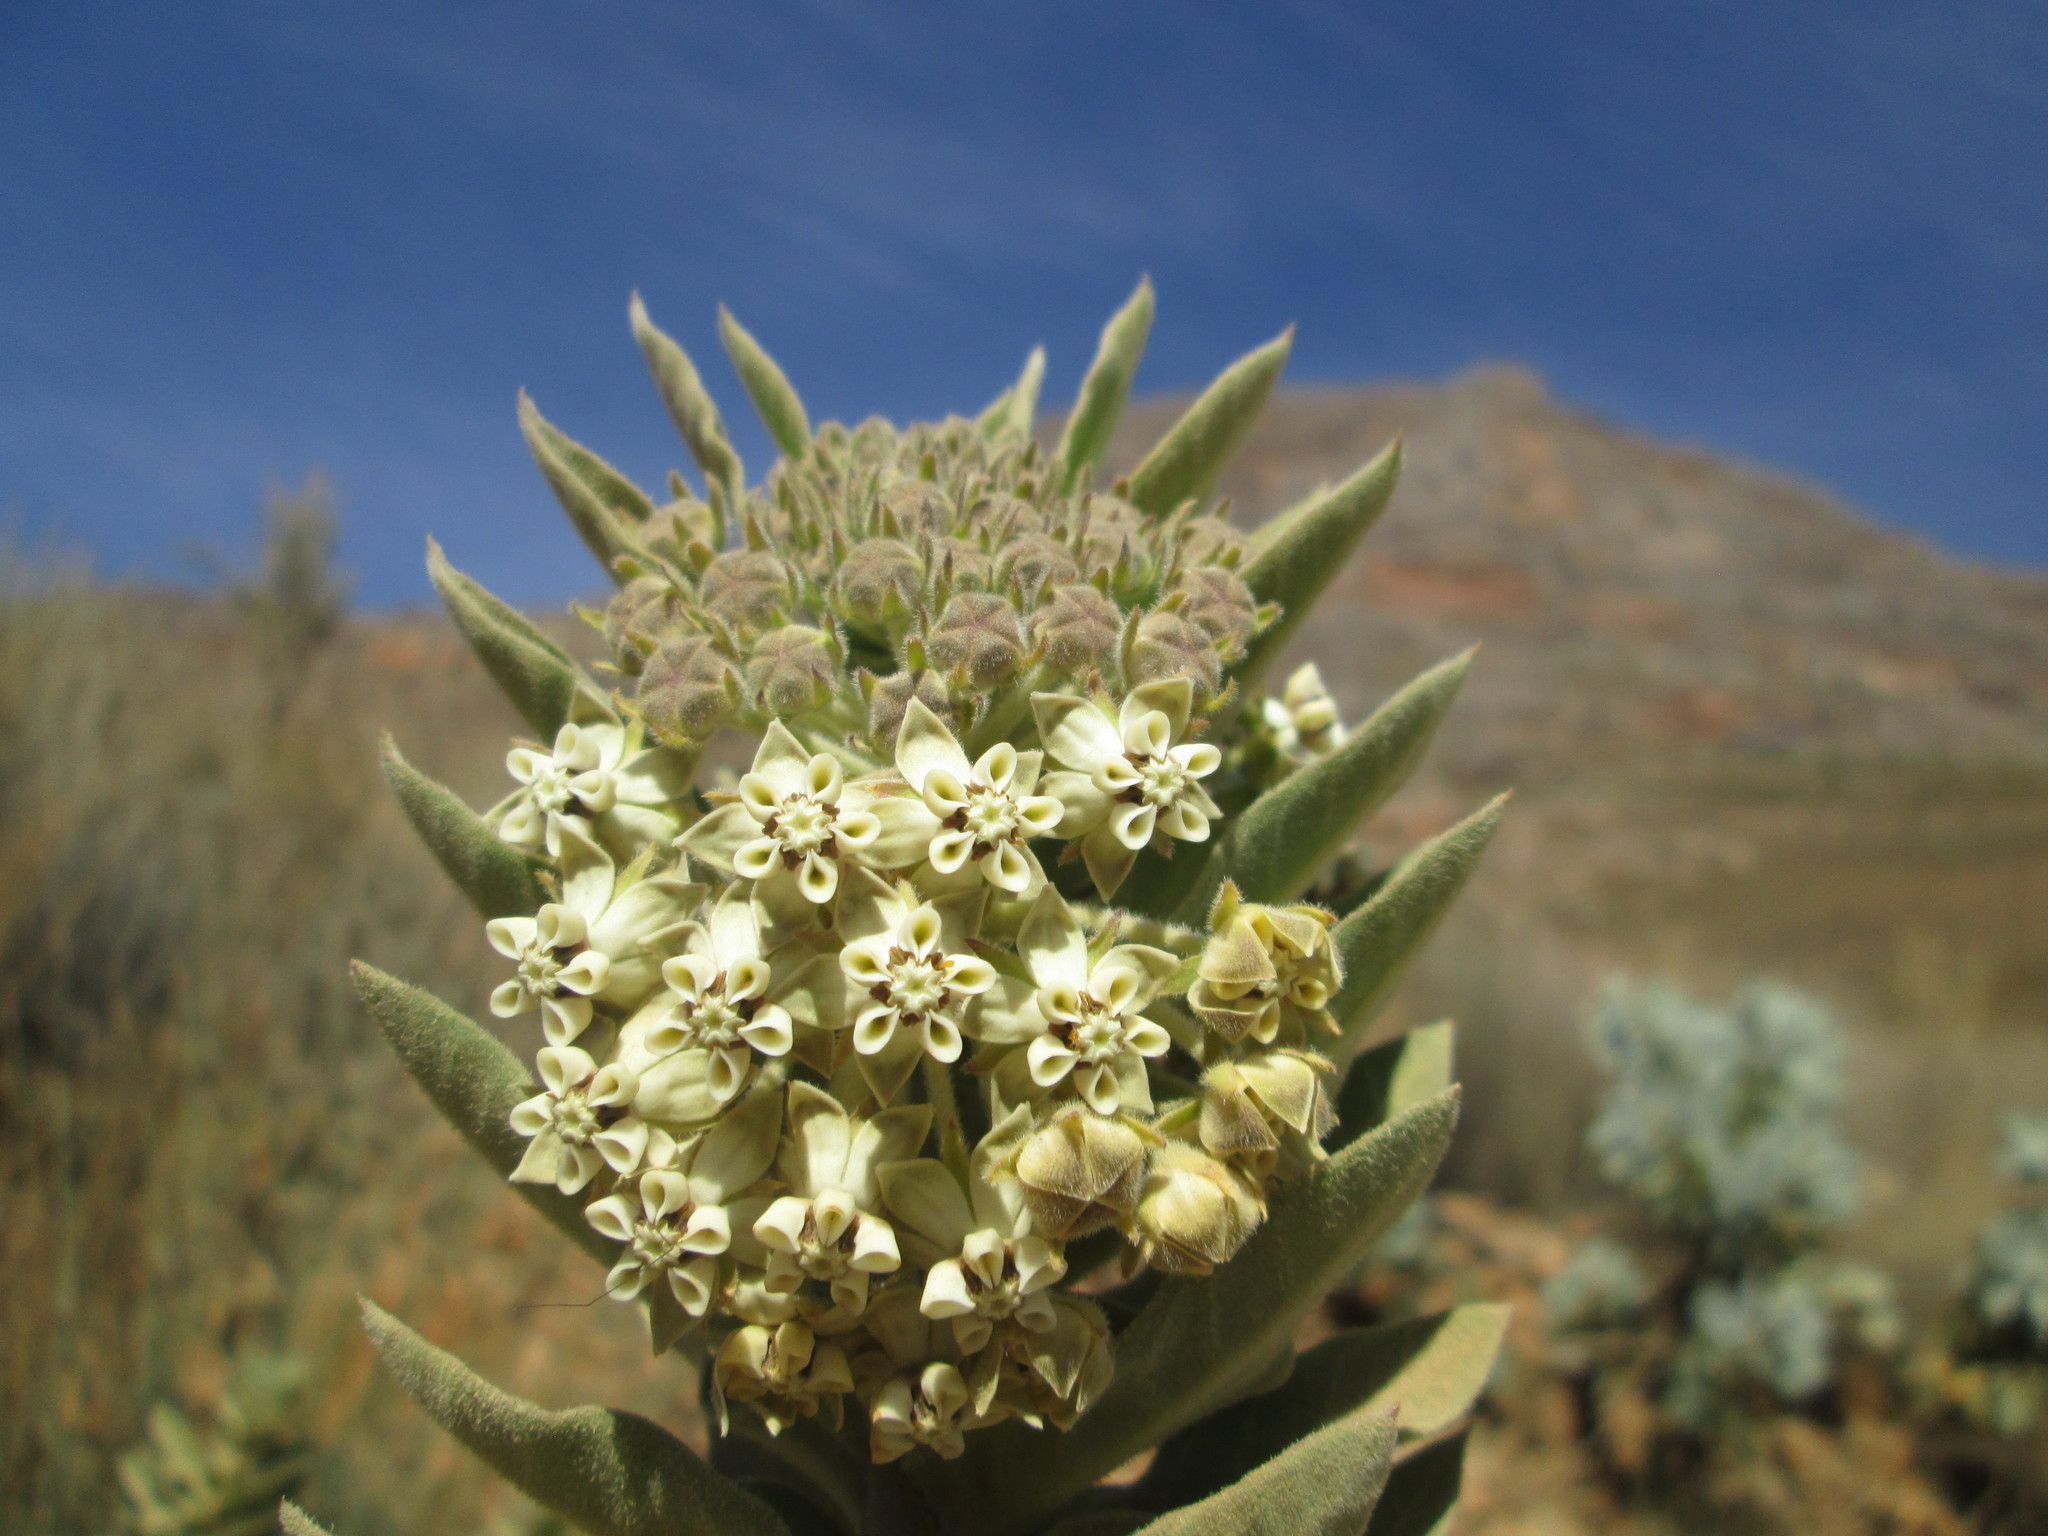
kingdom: Plantae
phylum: Tracheophyta
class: Magnoliopsida
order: Gentianales
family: Apocynaceae
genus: Gomphocarpus
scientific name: Gomphocarpus cancellatus
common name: Wild cotton
